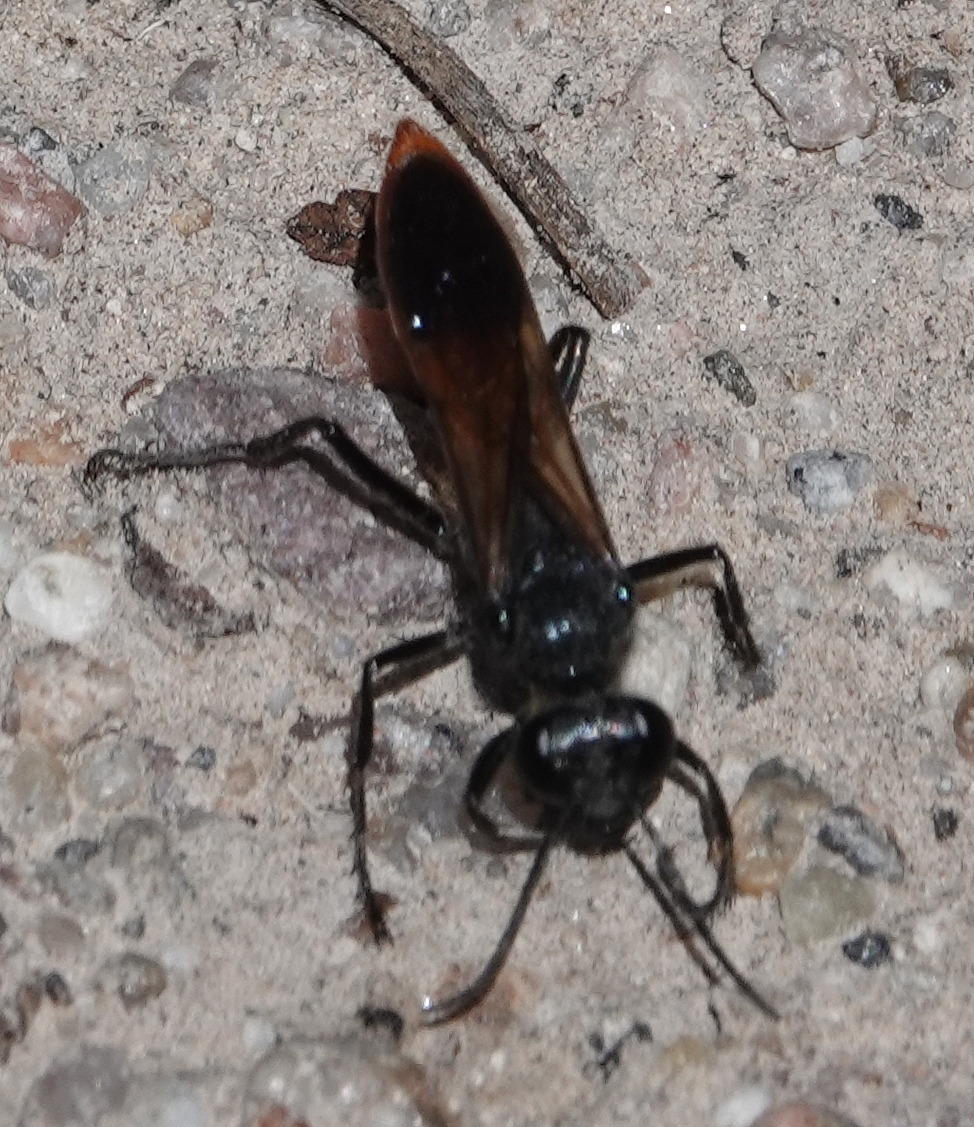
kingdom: Animalia
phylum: Arthropoda
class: Insecta
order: Hymenoptera
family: Sphecidae
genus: Sphex
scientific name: Sphex lucae
